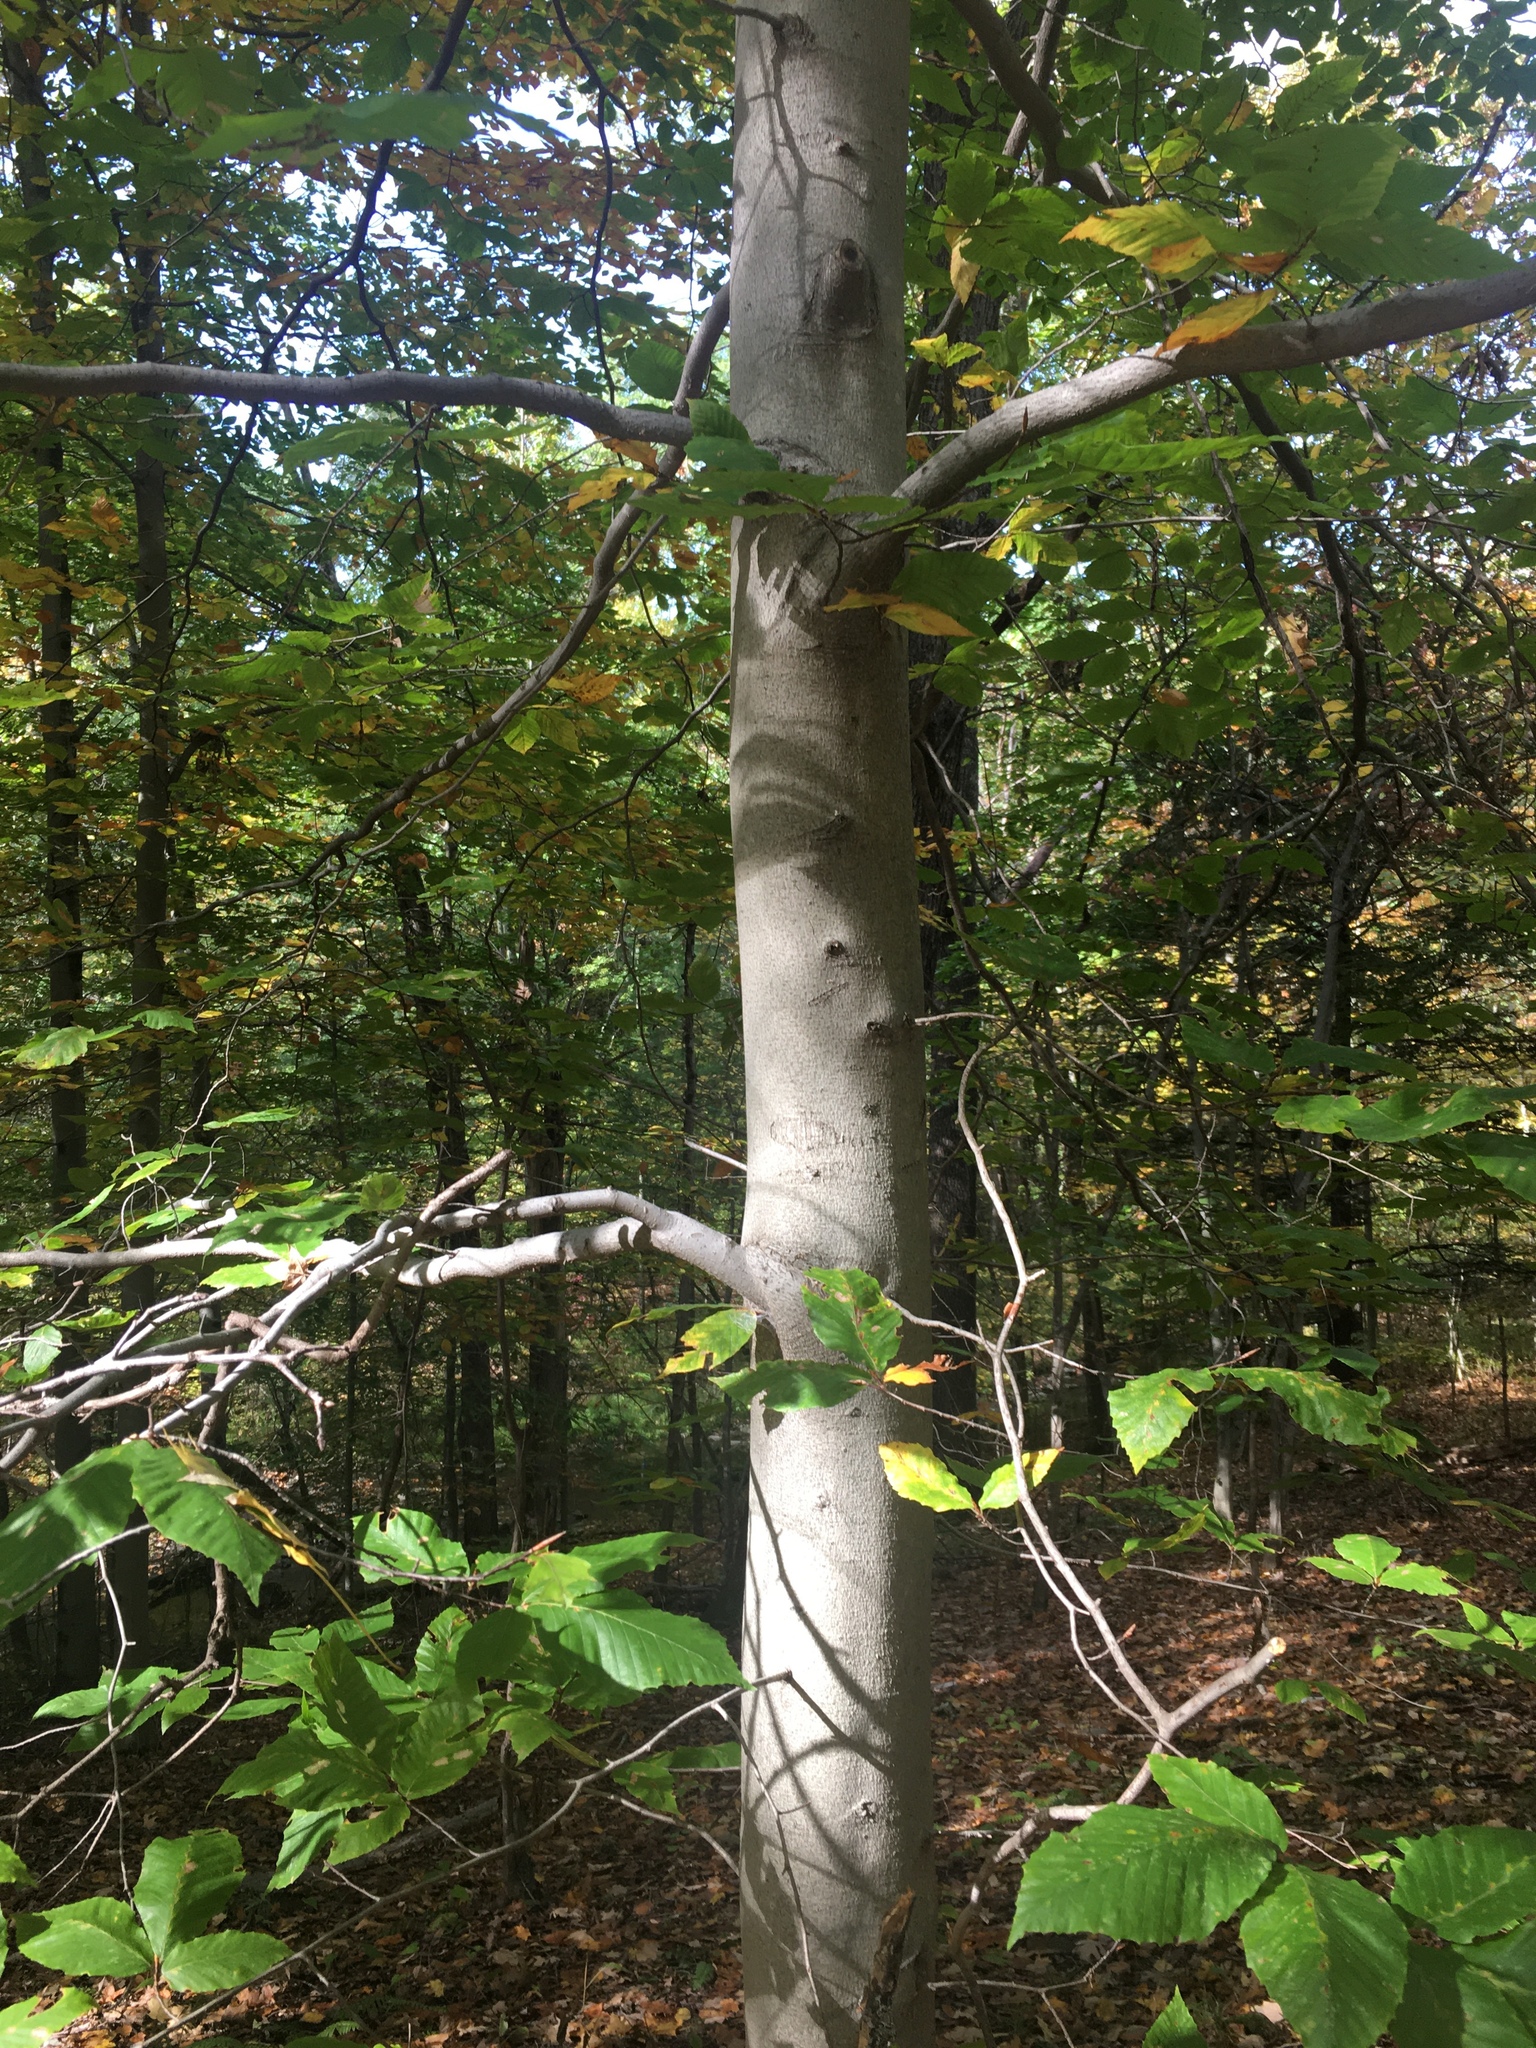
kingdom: Plantae
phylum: Tracheophyta
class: Magnoliopsida
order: Fagales
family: Fagaceae
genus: Fagus
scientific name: Fagus grandifolia
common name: American beech
